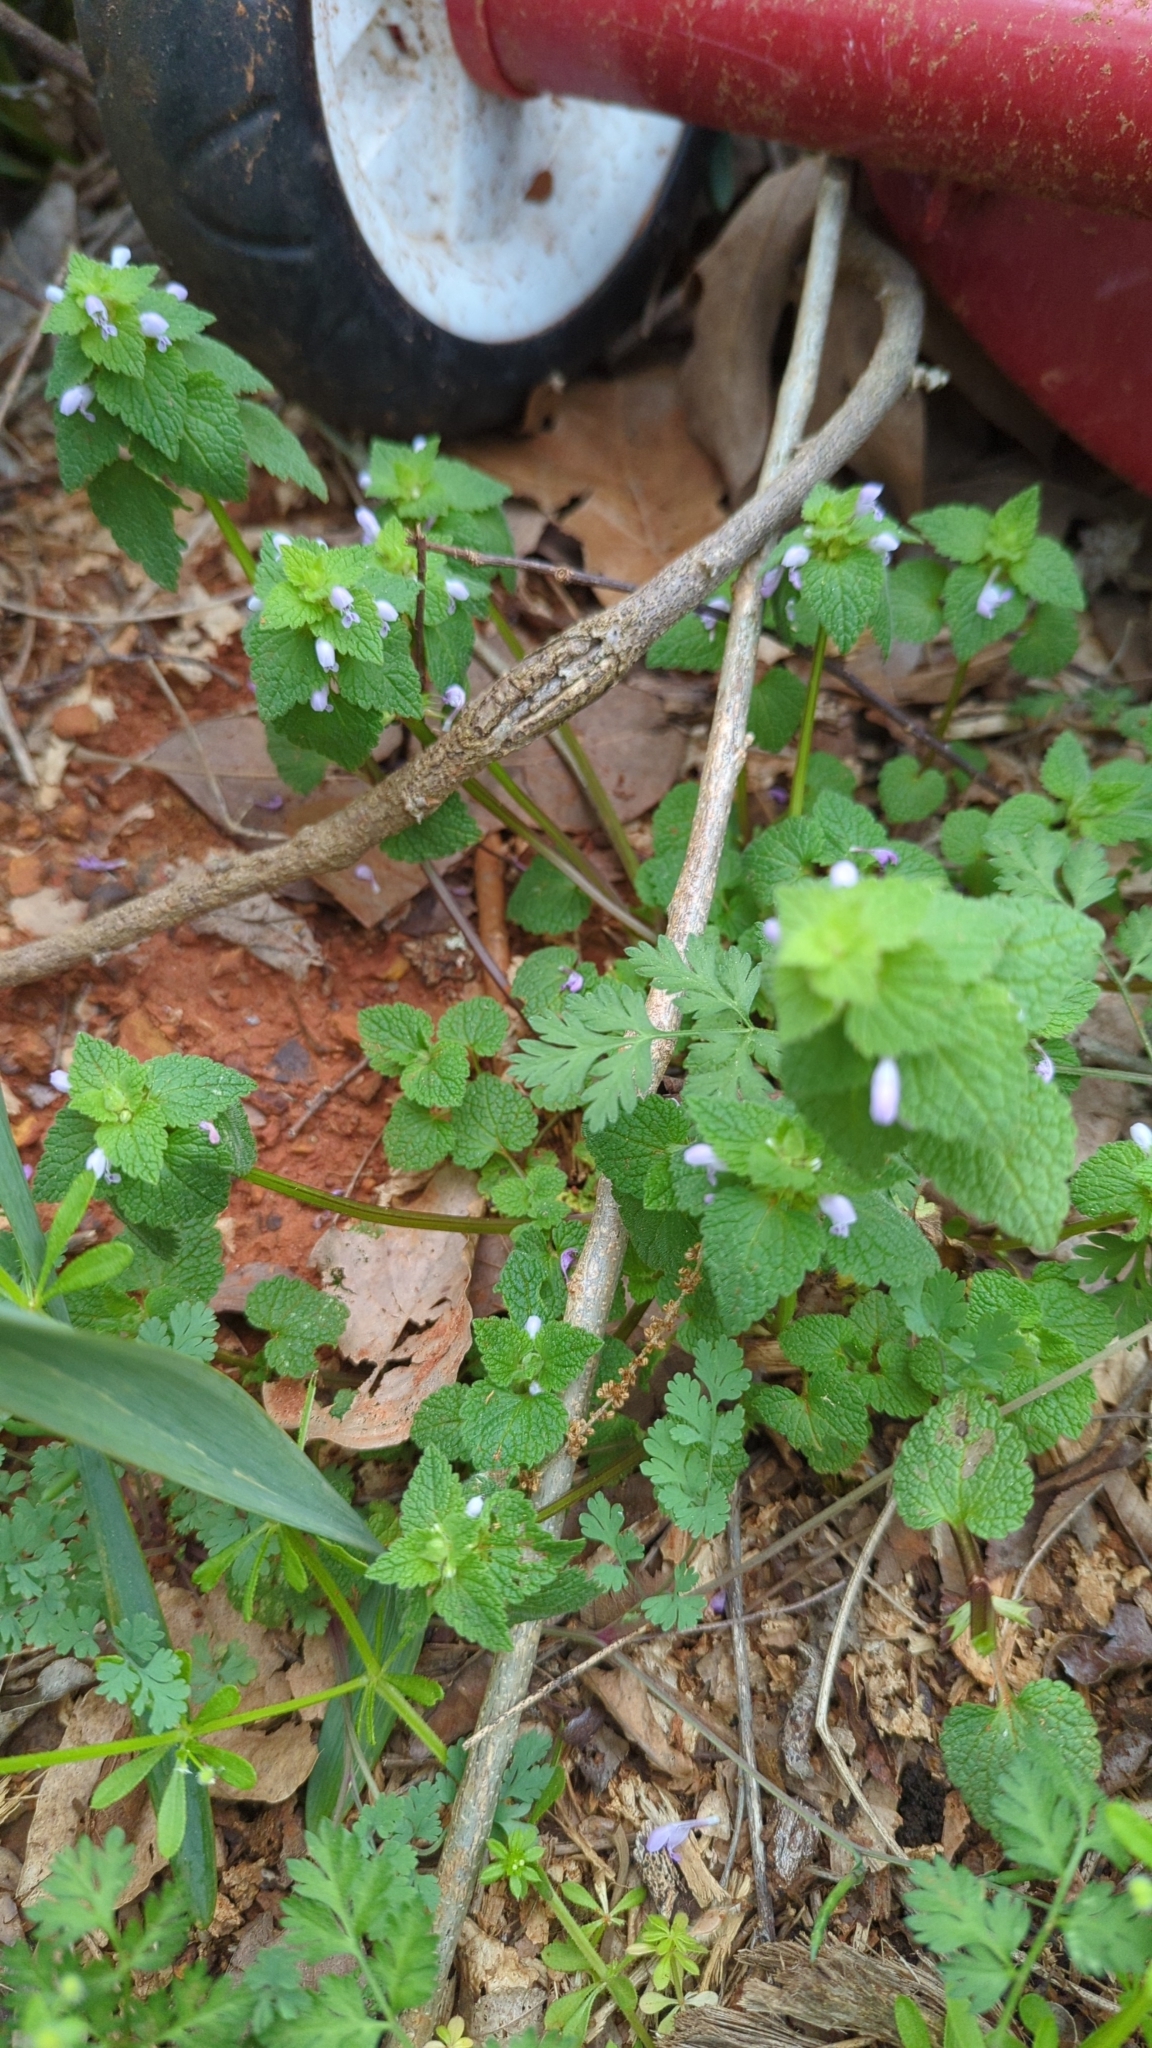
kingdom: Plantae
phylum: Tracheophyta
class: Magnoliopsida
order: Lamiales
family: Lamiaceae
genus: Lamium
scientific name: Lamium purpureum
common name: Red dead-nettle
